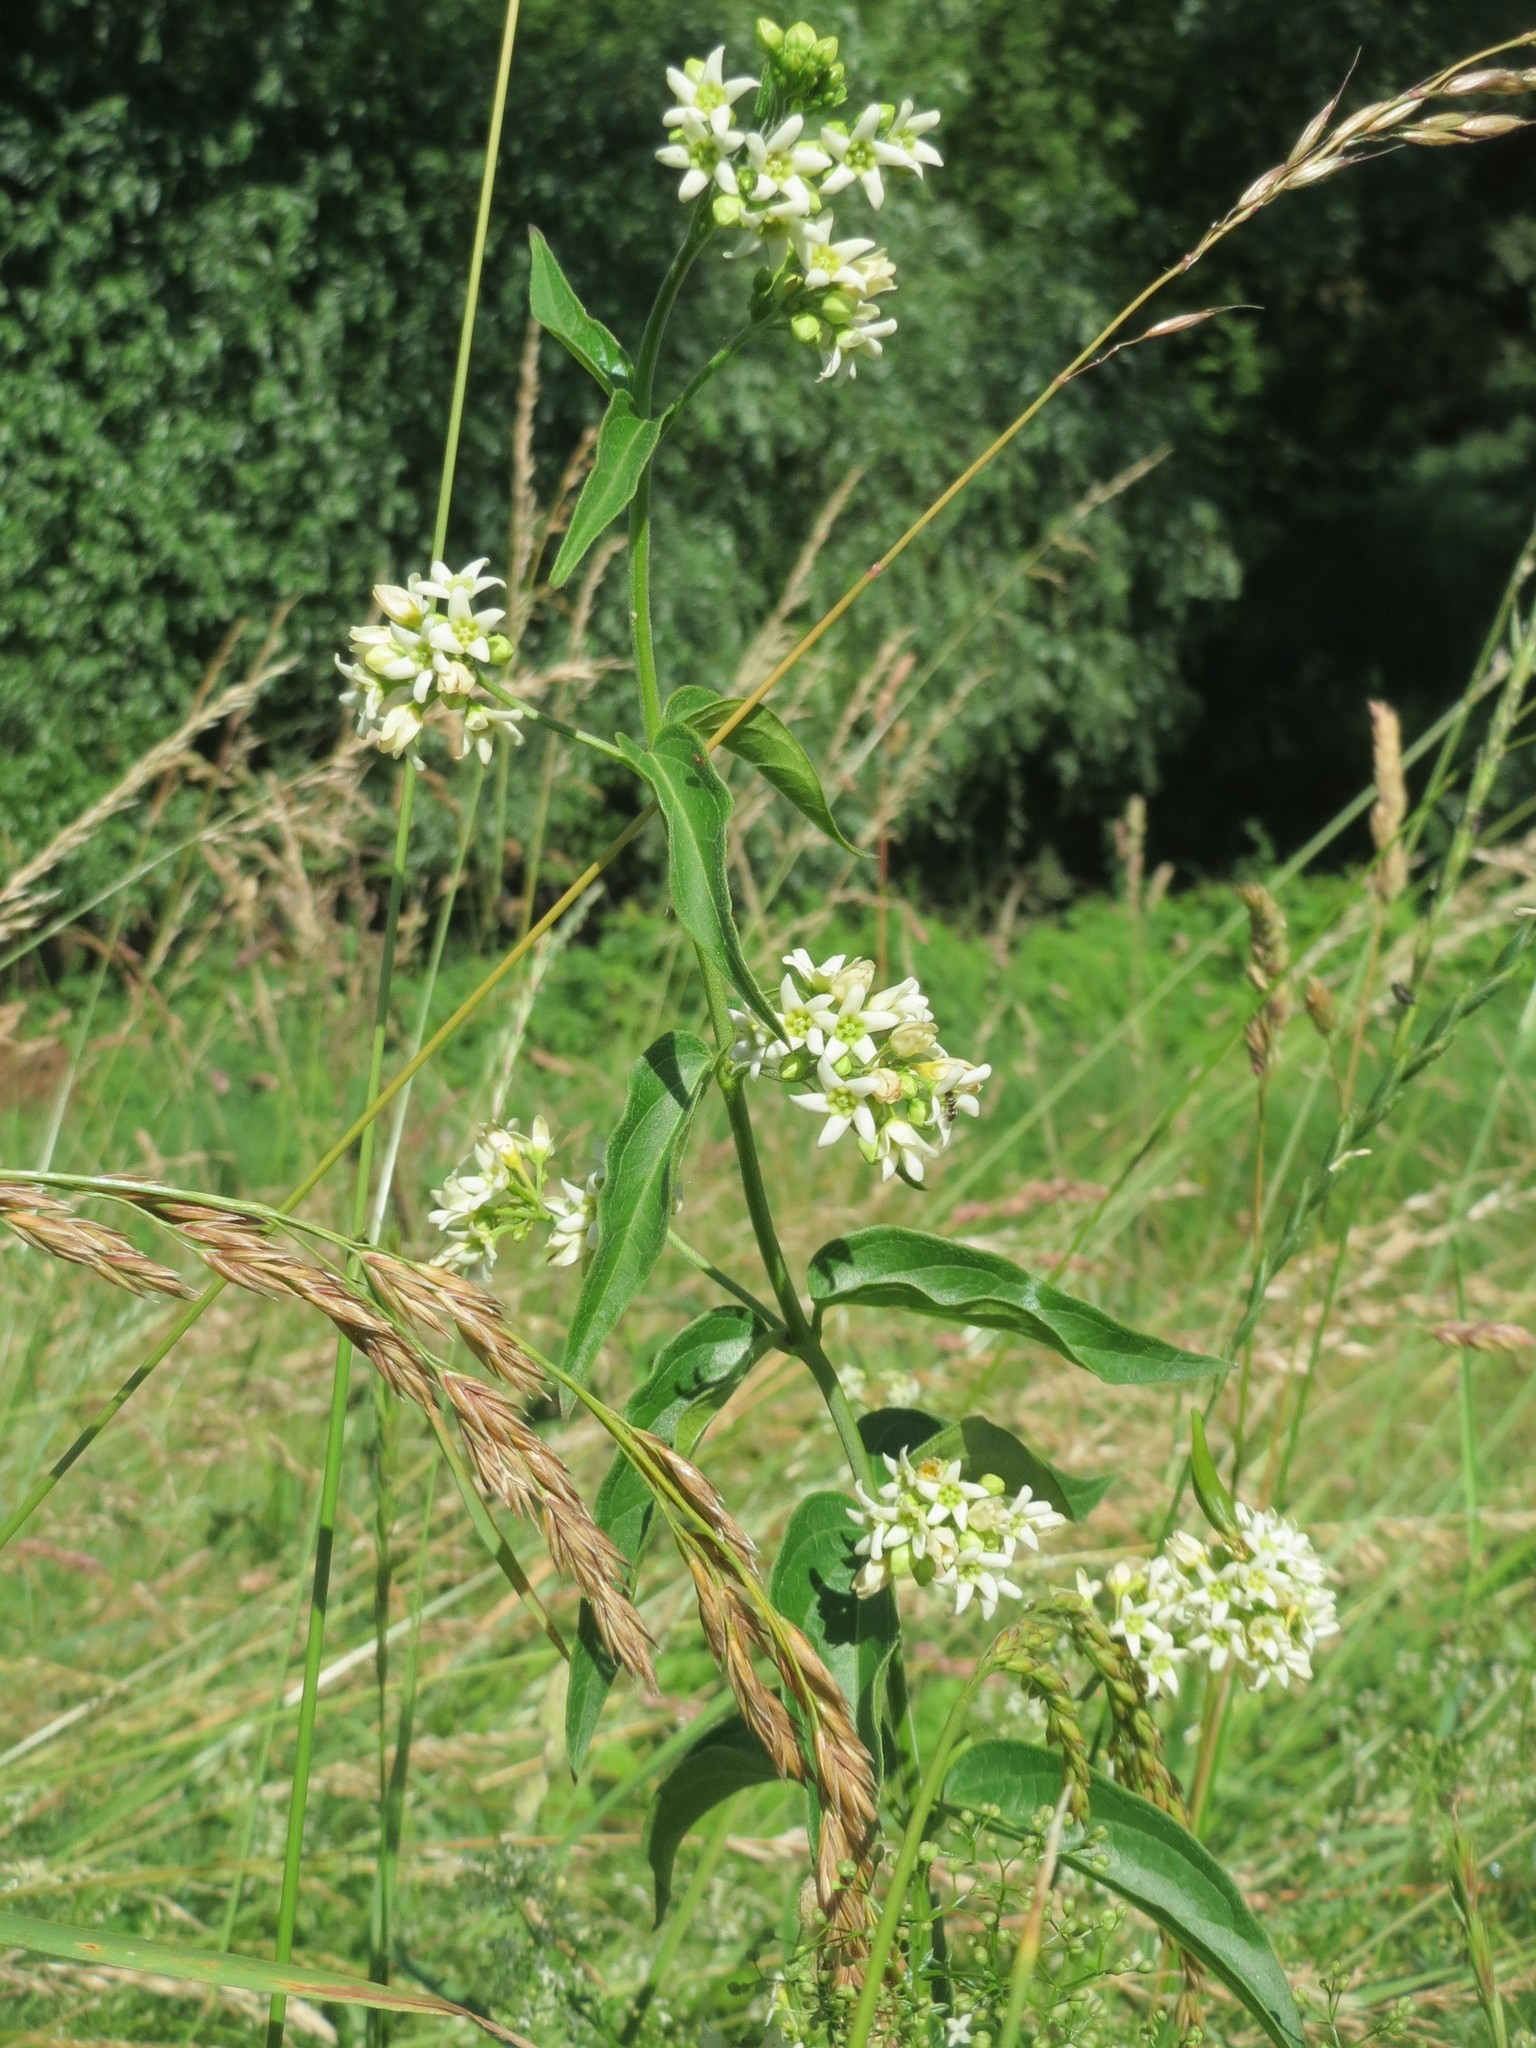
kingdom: Plantae
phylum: Tracheophyta
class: Magnoliopsida
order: Gentianales
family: Apocynaceae
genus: Vincetoxicum
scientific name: Vincetoxicum hirundinaria
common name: White swallowwort
